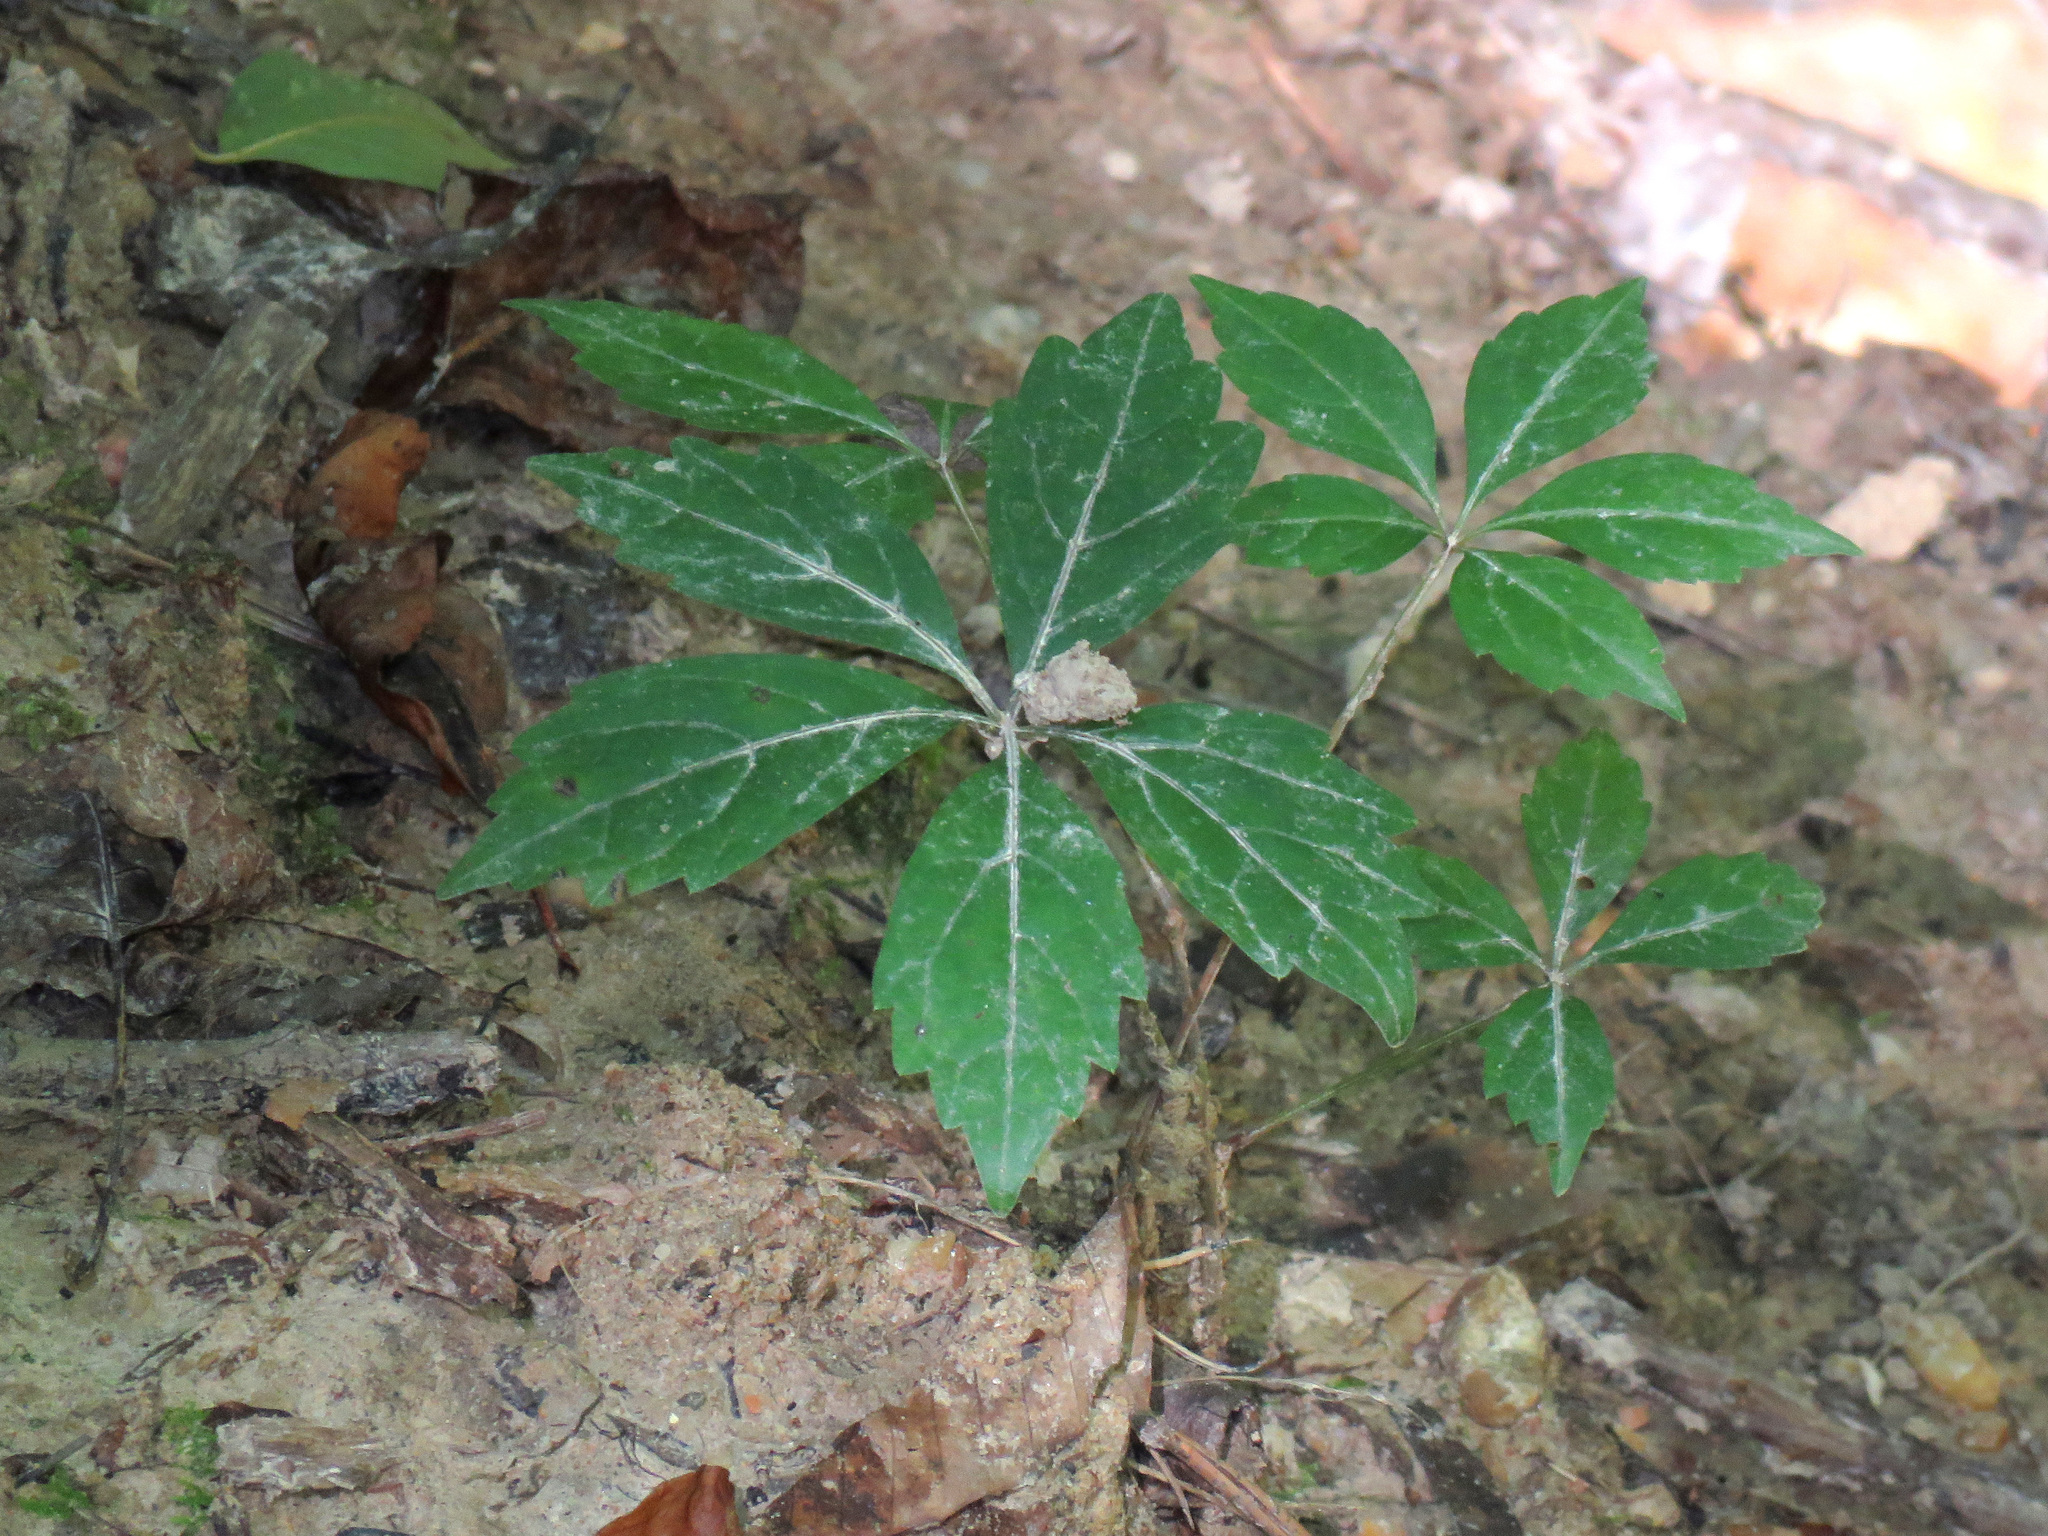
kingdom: Plantae
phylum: Tracheophyta
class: Magnoliopsida
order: Vitales
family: Vitaceae
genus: Parthenocissus
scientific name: Parthenocissus quinquefolia
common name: Virginia-creeper
